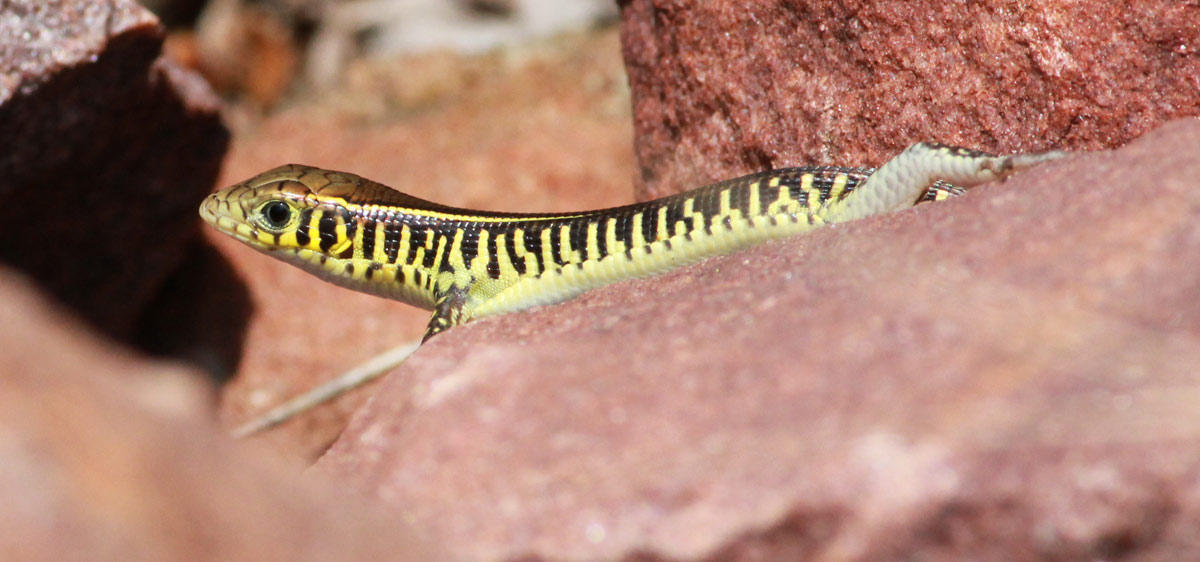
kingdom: Animalia
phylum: Chordata
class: Squamata
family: Gerrhosauridae
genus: Gerrhosaurus
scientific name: Gerrhosaurus flavigularis
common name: Yellow-throated plated lizard
